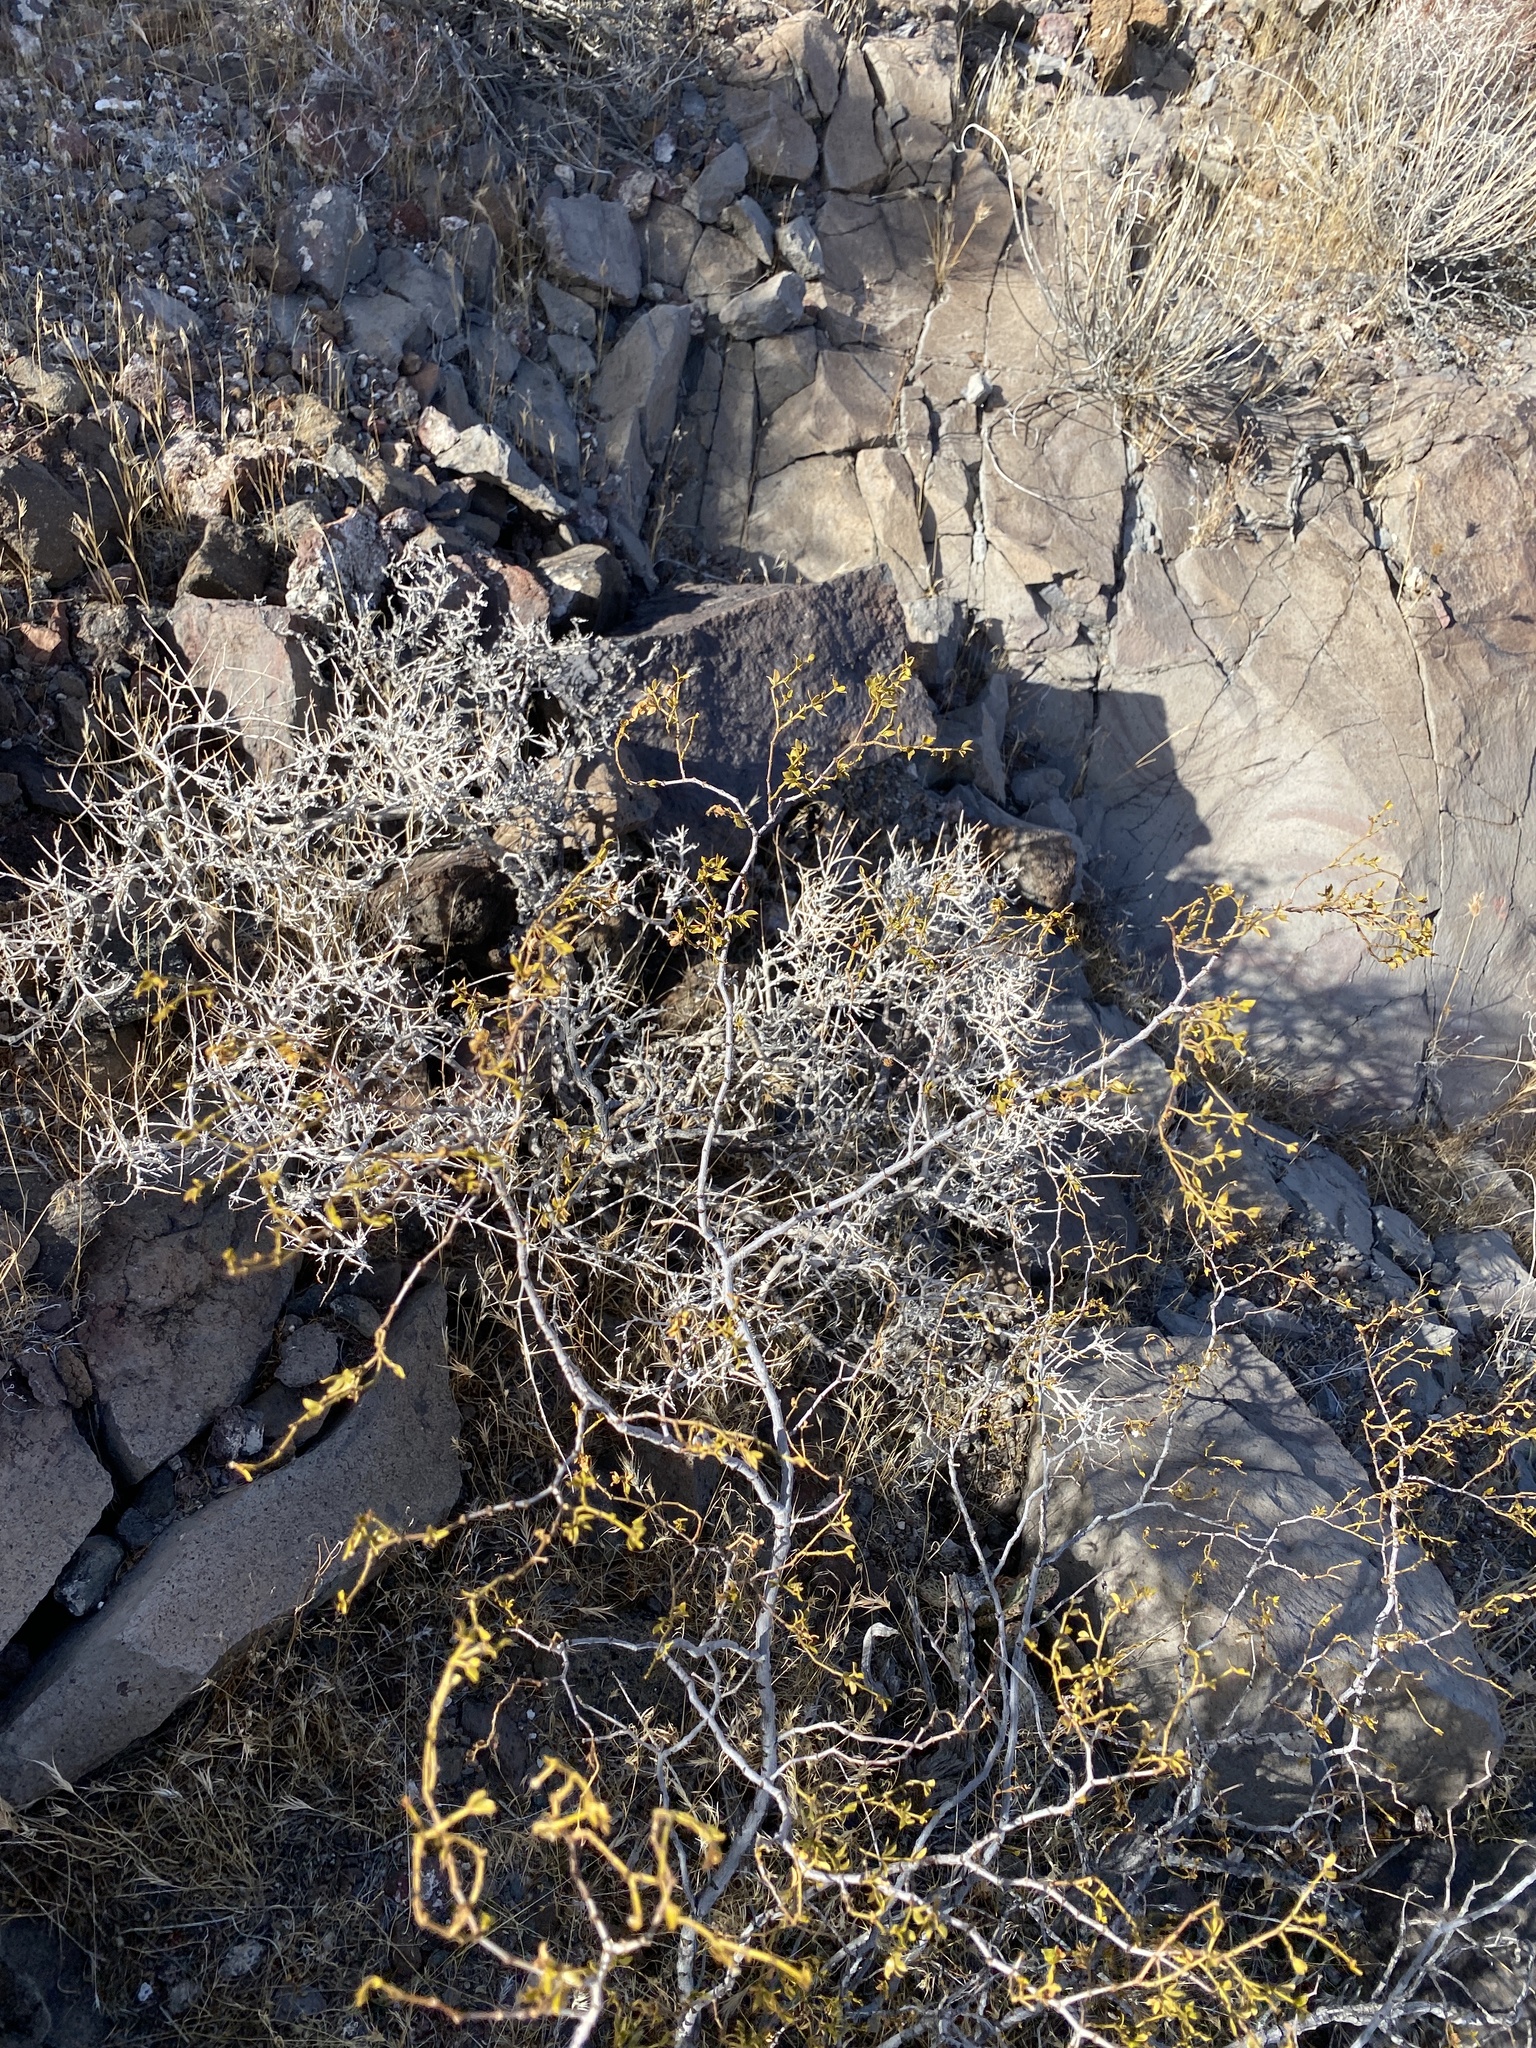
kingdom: Plantae
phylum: Tracheophyta
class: Magnoliopsida
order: Zygophyllales
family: Zygophyllaceae
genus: Larrea
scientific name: Larrea tridentata
